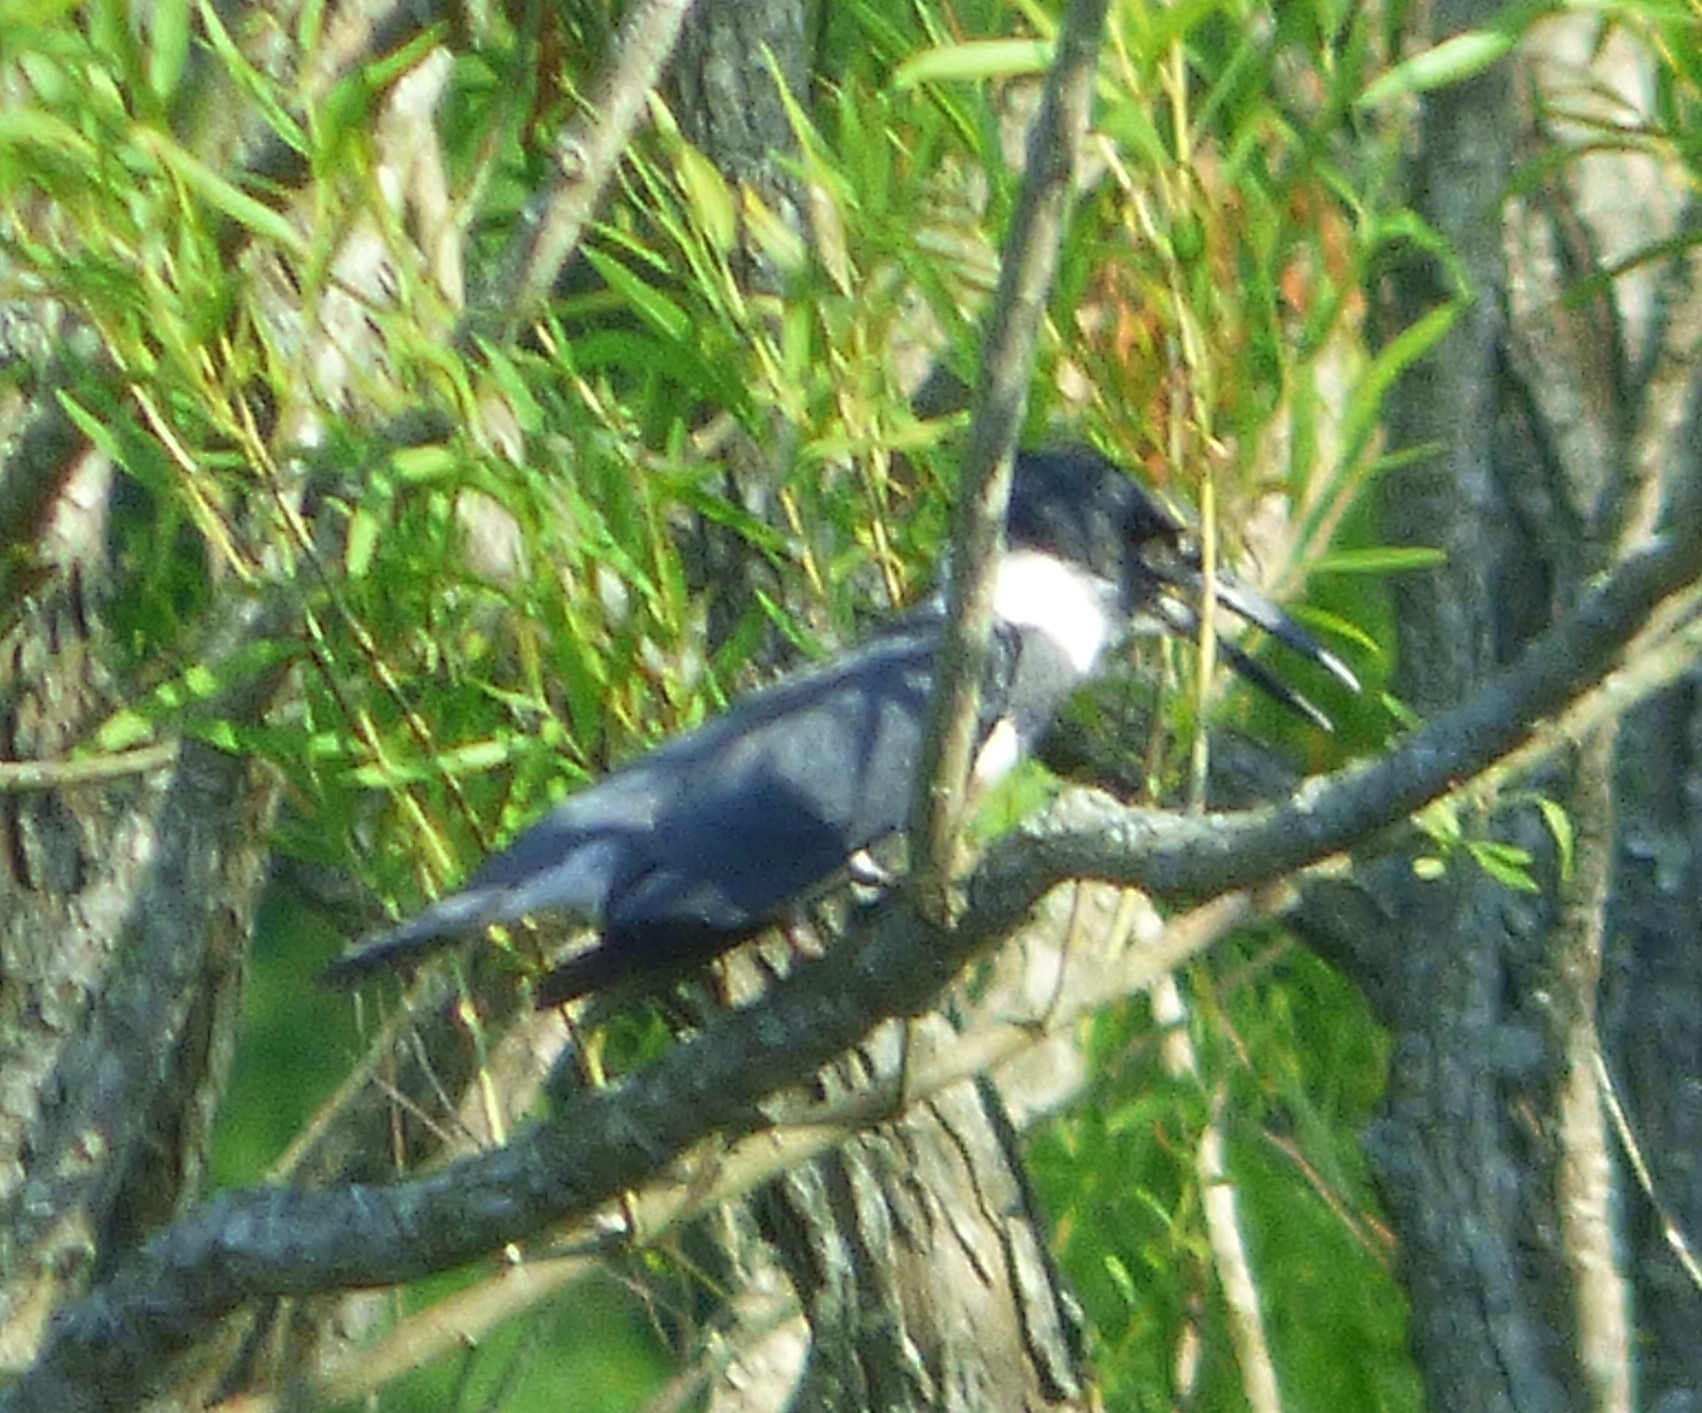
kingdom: Animalia
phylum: Chordata
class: Aves
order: Coraciiformes
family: Alcedinidae
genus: Megaceryle
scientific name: Megaceryle alcyon
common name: Belted kingfisher
